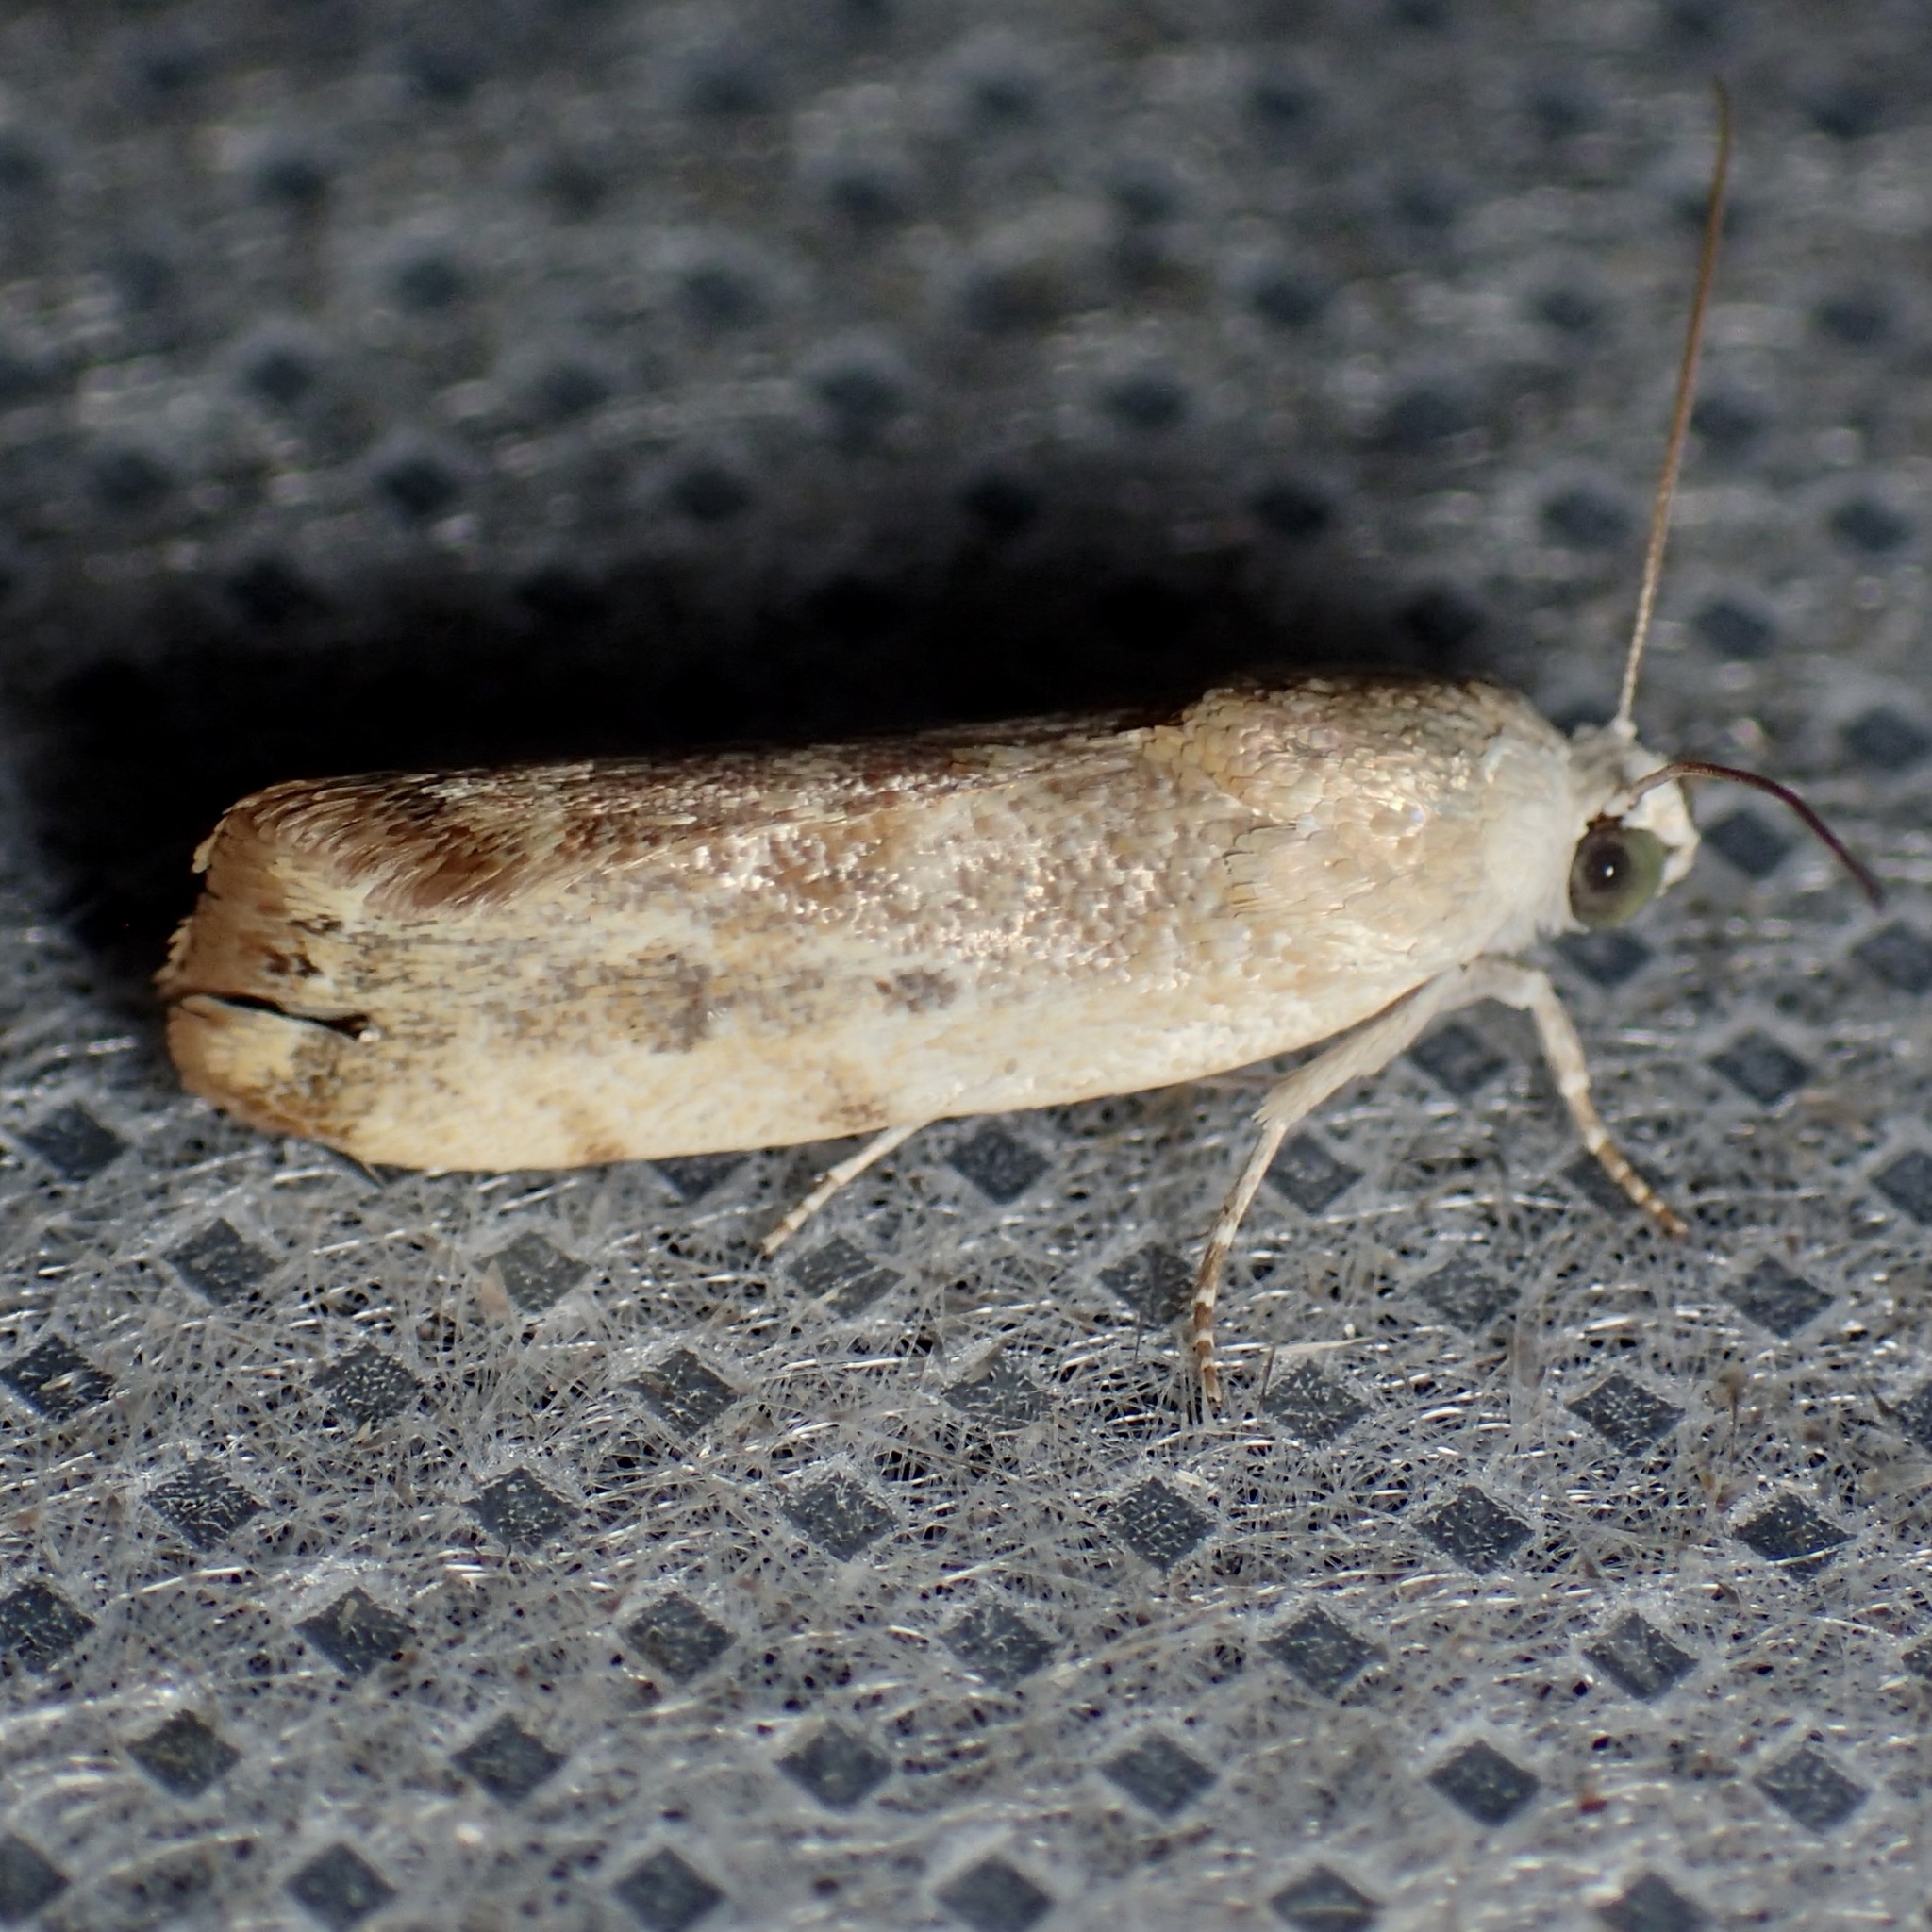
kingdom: Animalia
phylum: Arthropoda
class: Insecta
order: Lepidoptera
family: Noctuidae
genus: Acontia
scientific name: Acontia fasciatella
